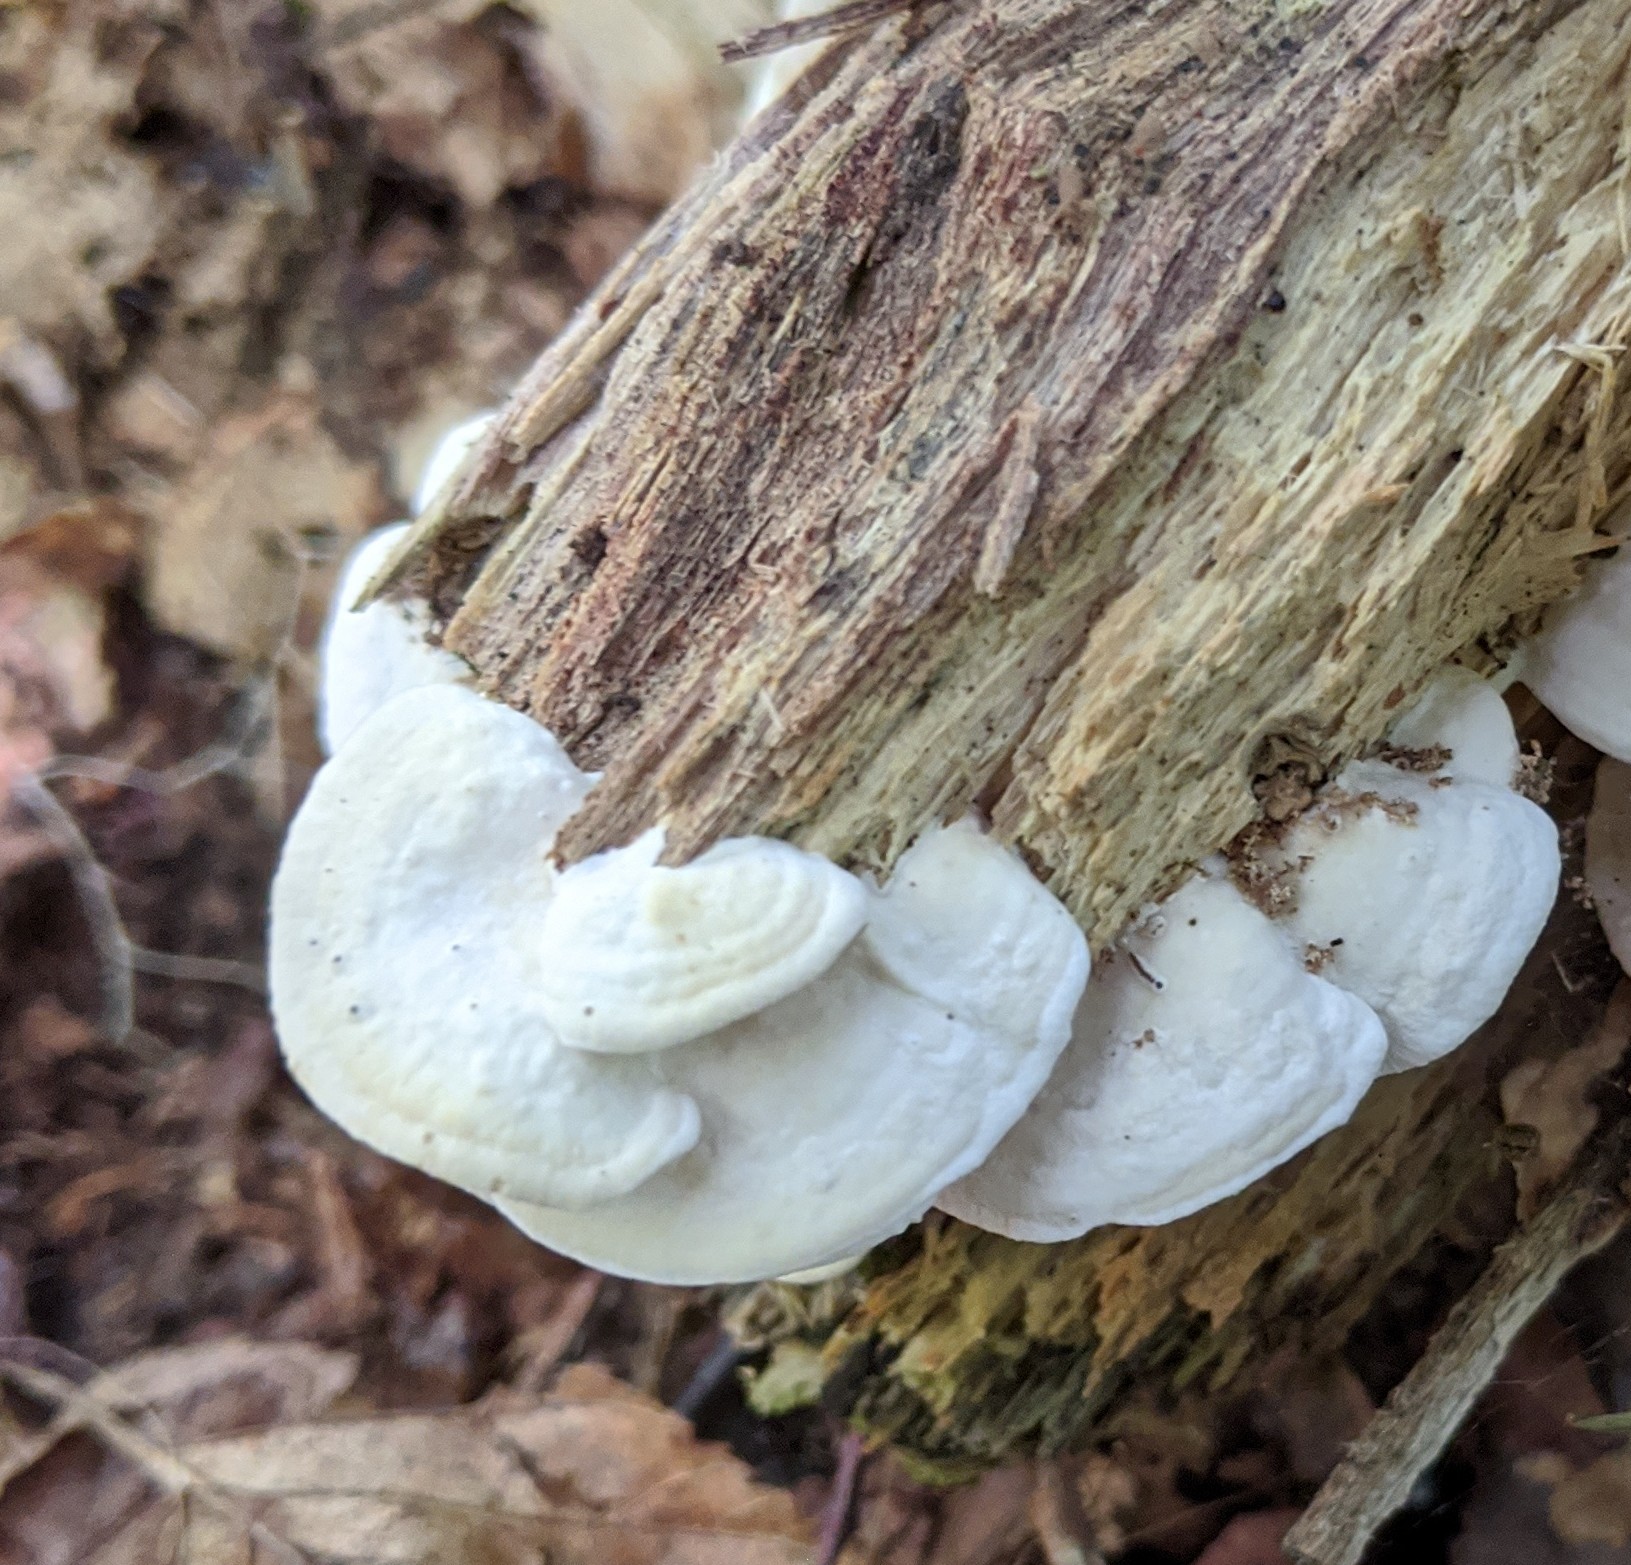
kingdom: Fungi
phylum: Basidiomycota
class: Agaricomycetes
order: Polyporales
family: Steccherinaceae
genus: Antrodiella
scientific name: Antrodiella semisupina
